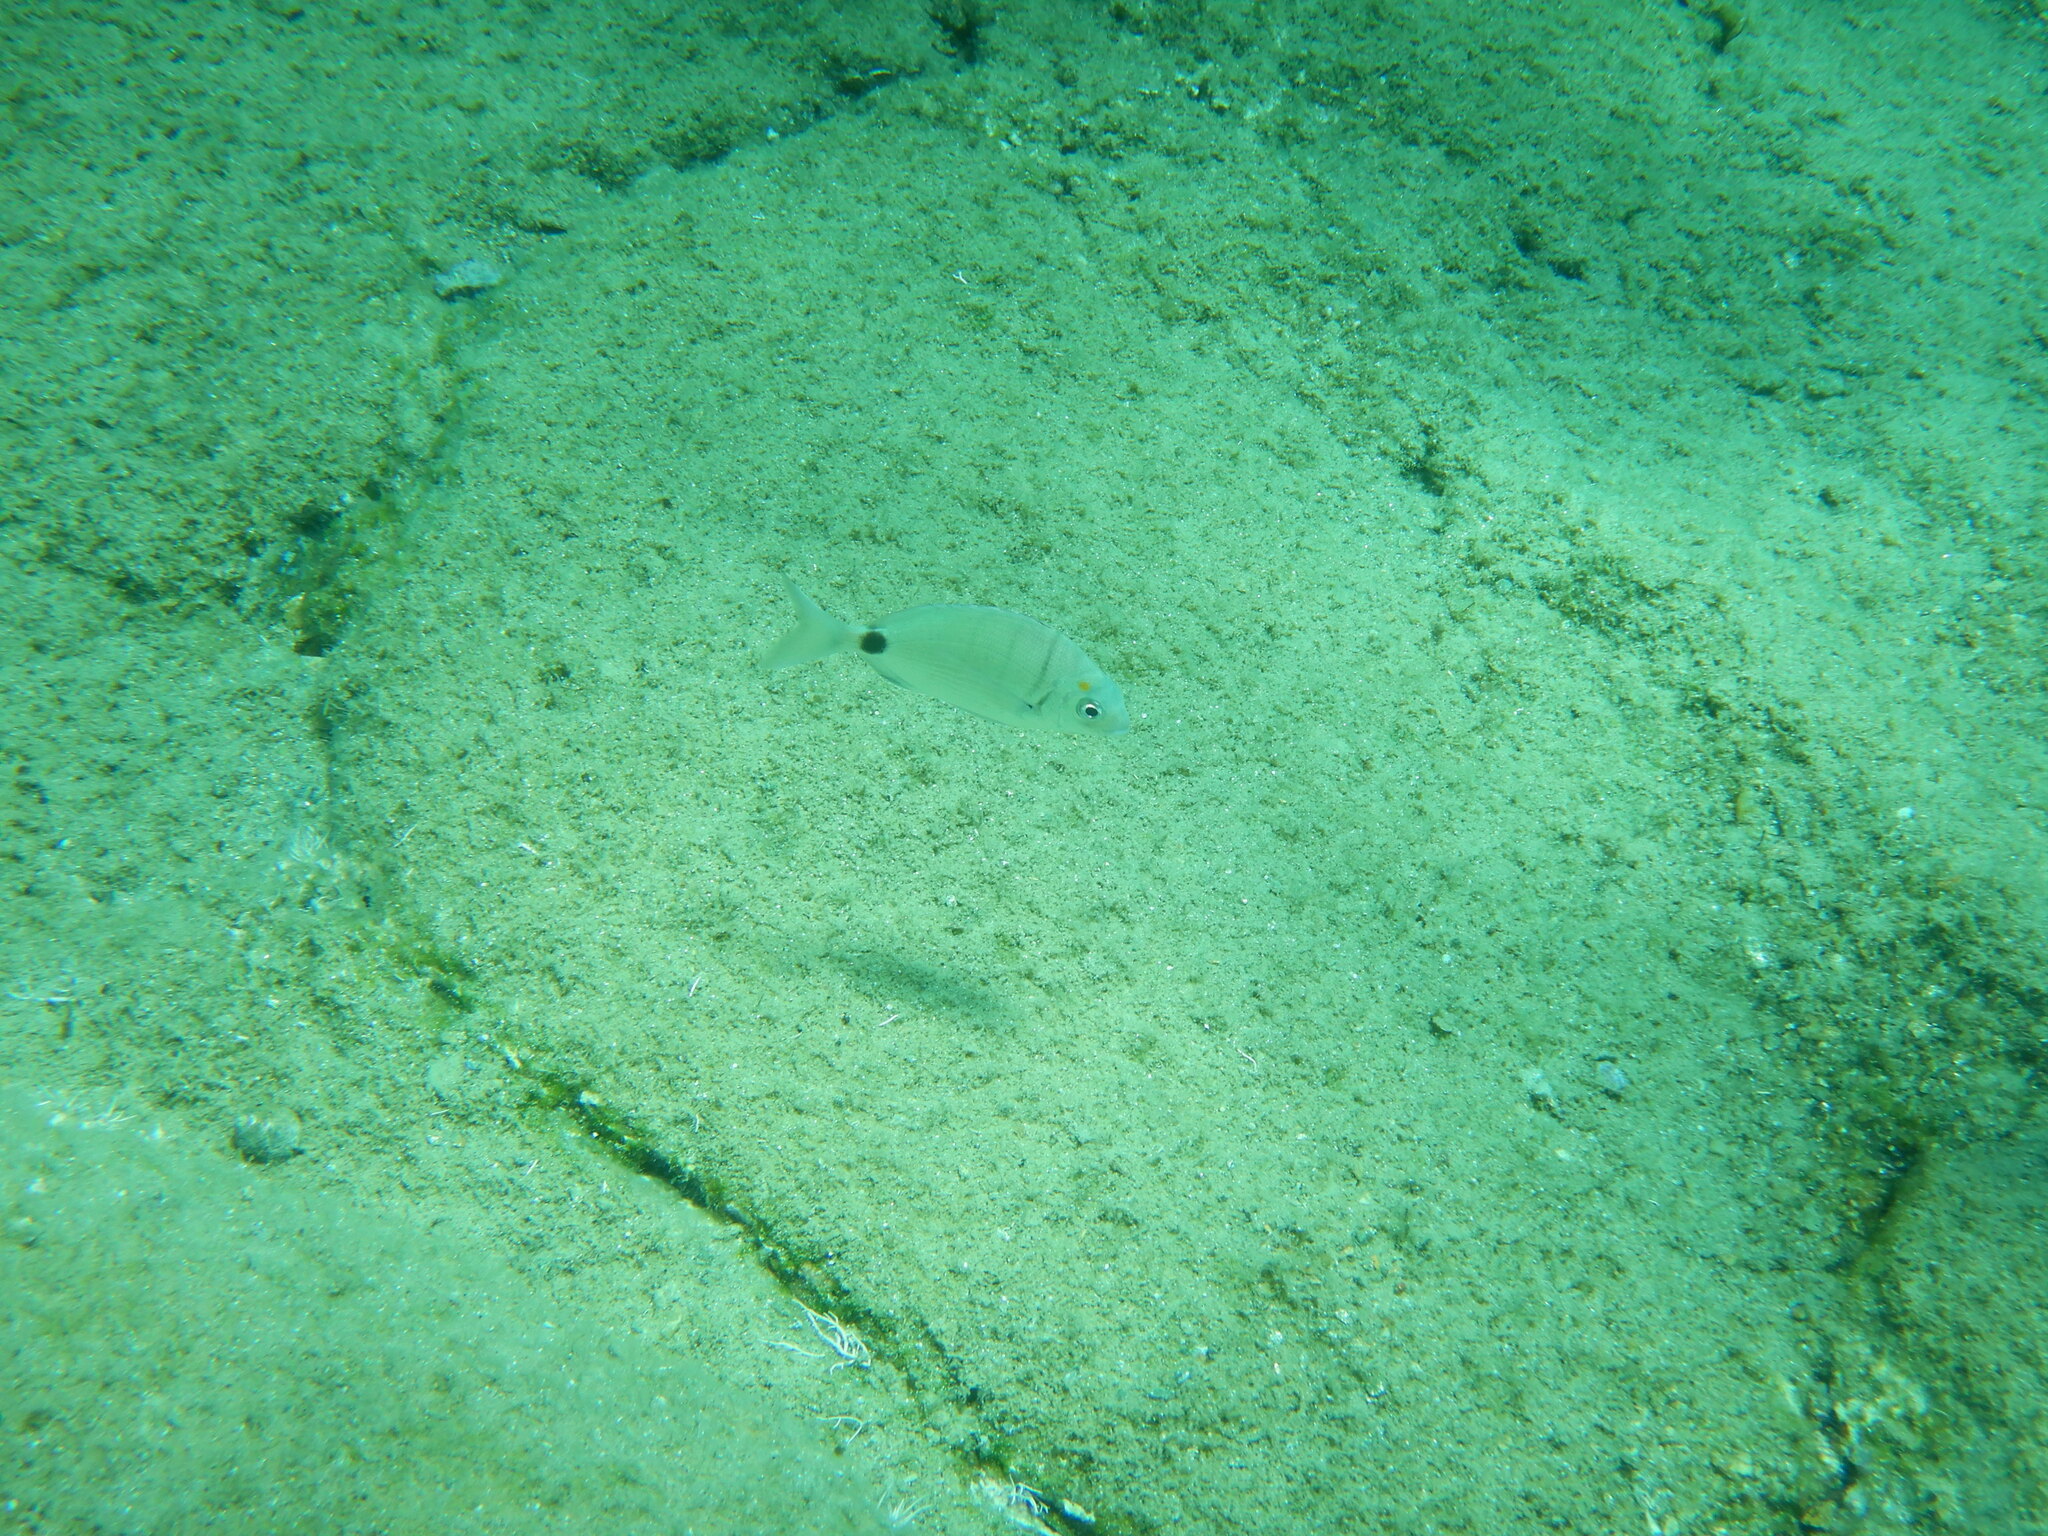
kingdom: Animalia
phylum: Chordata
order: Perciformes
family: Sparidae
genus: Diplodus
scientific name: Diplodus sargus
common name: White seabream
